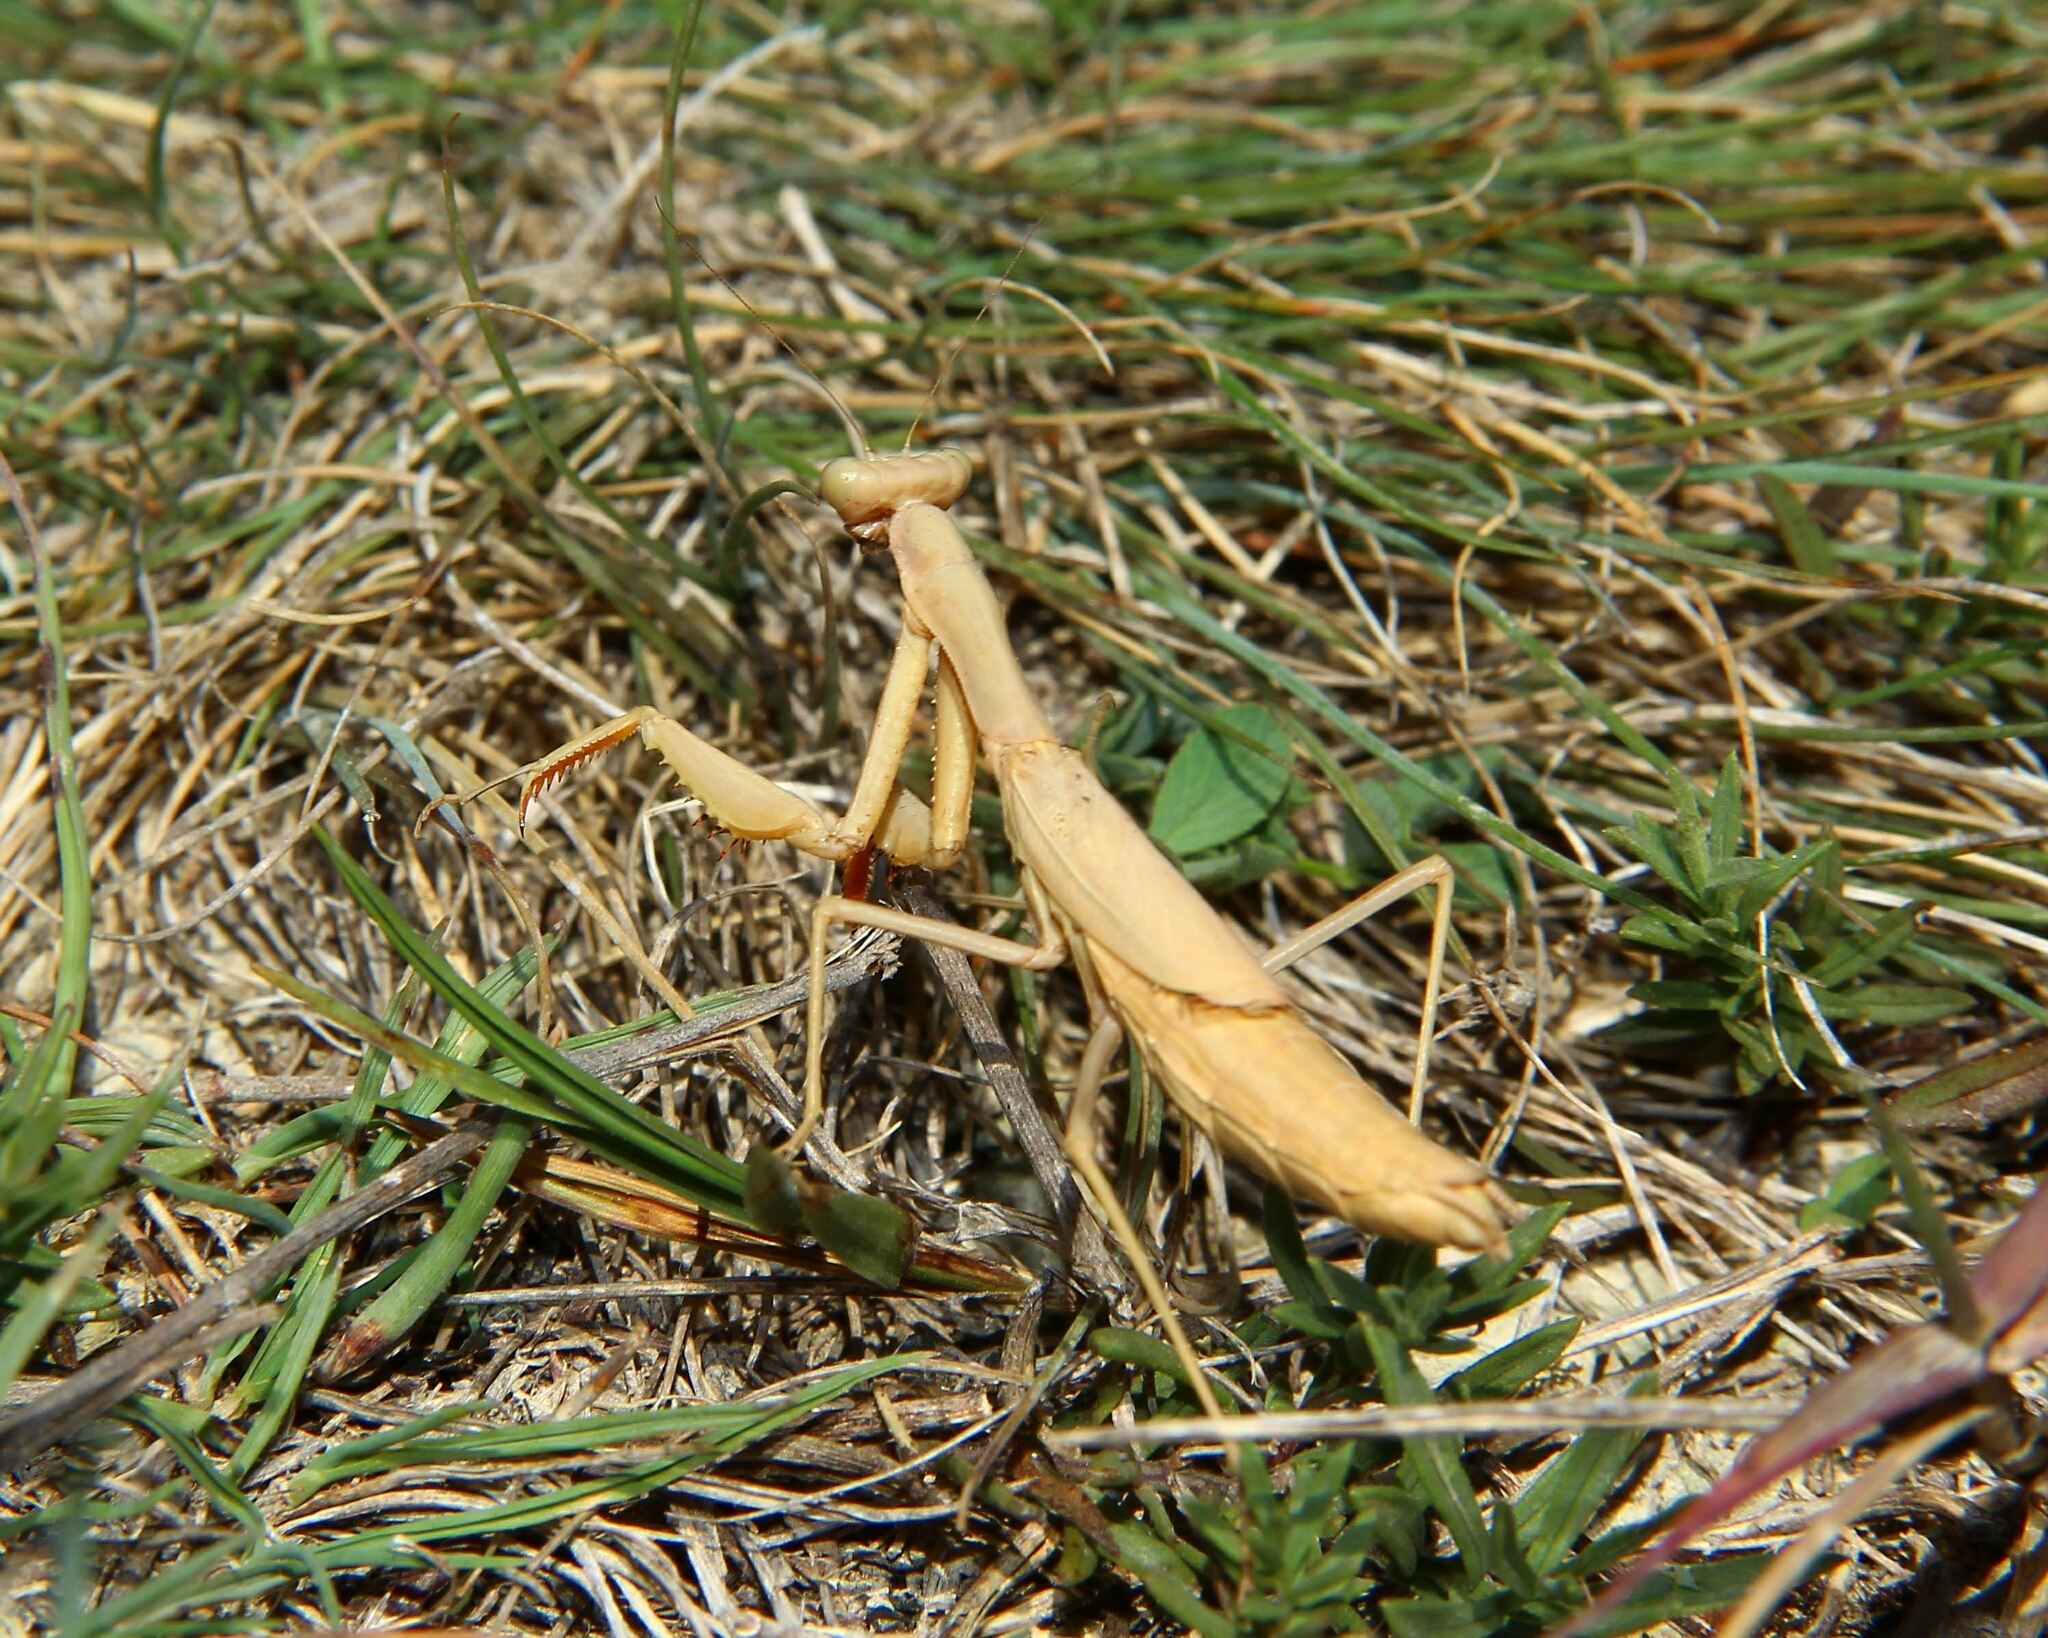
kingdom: Animalia
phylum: Arthropoda
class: Insecta
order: Mantodea
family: Eremiaphilidae
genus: Iris
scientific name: Iris polystictica
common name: Dot-winged mantis
